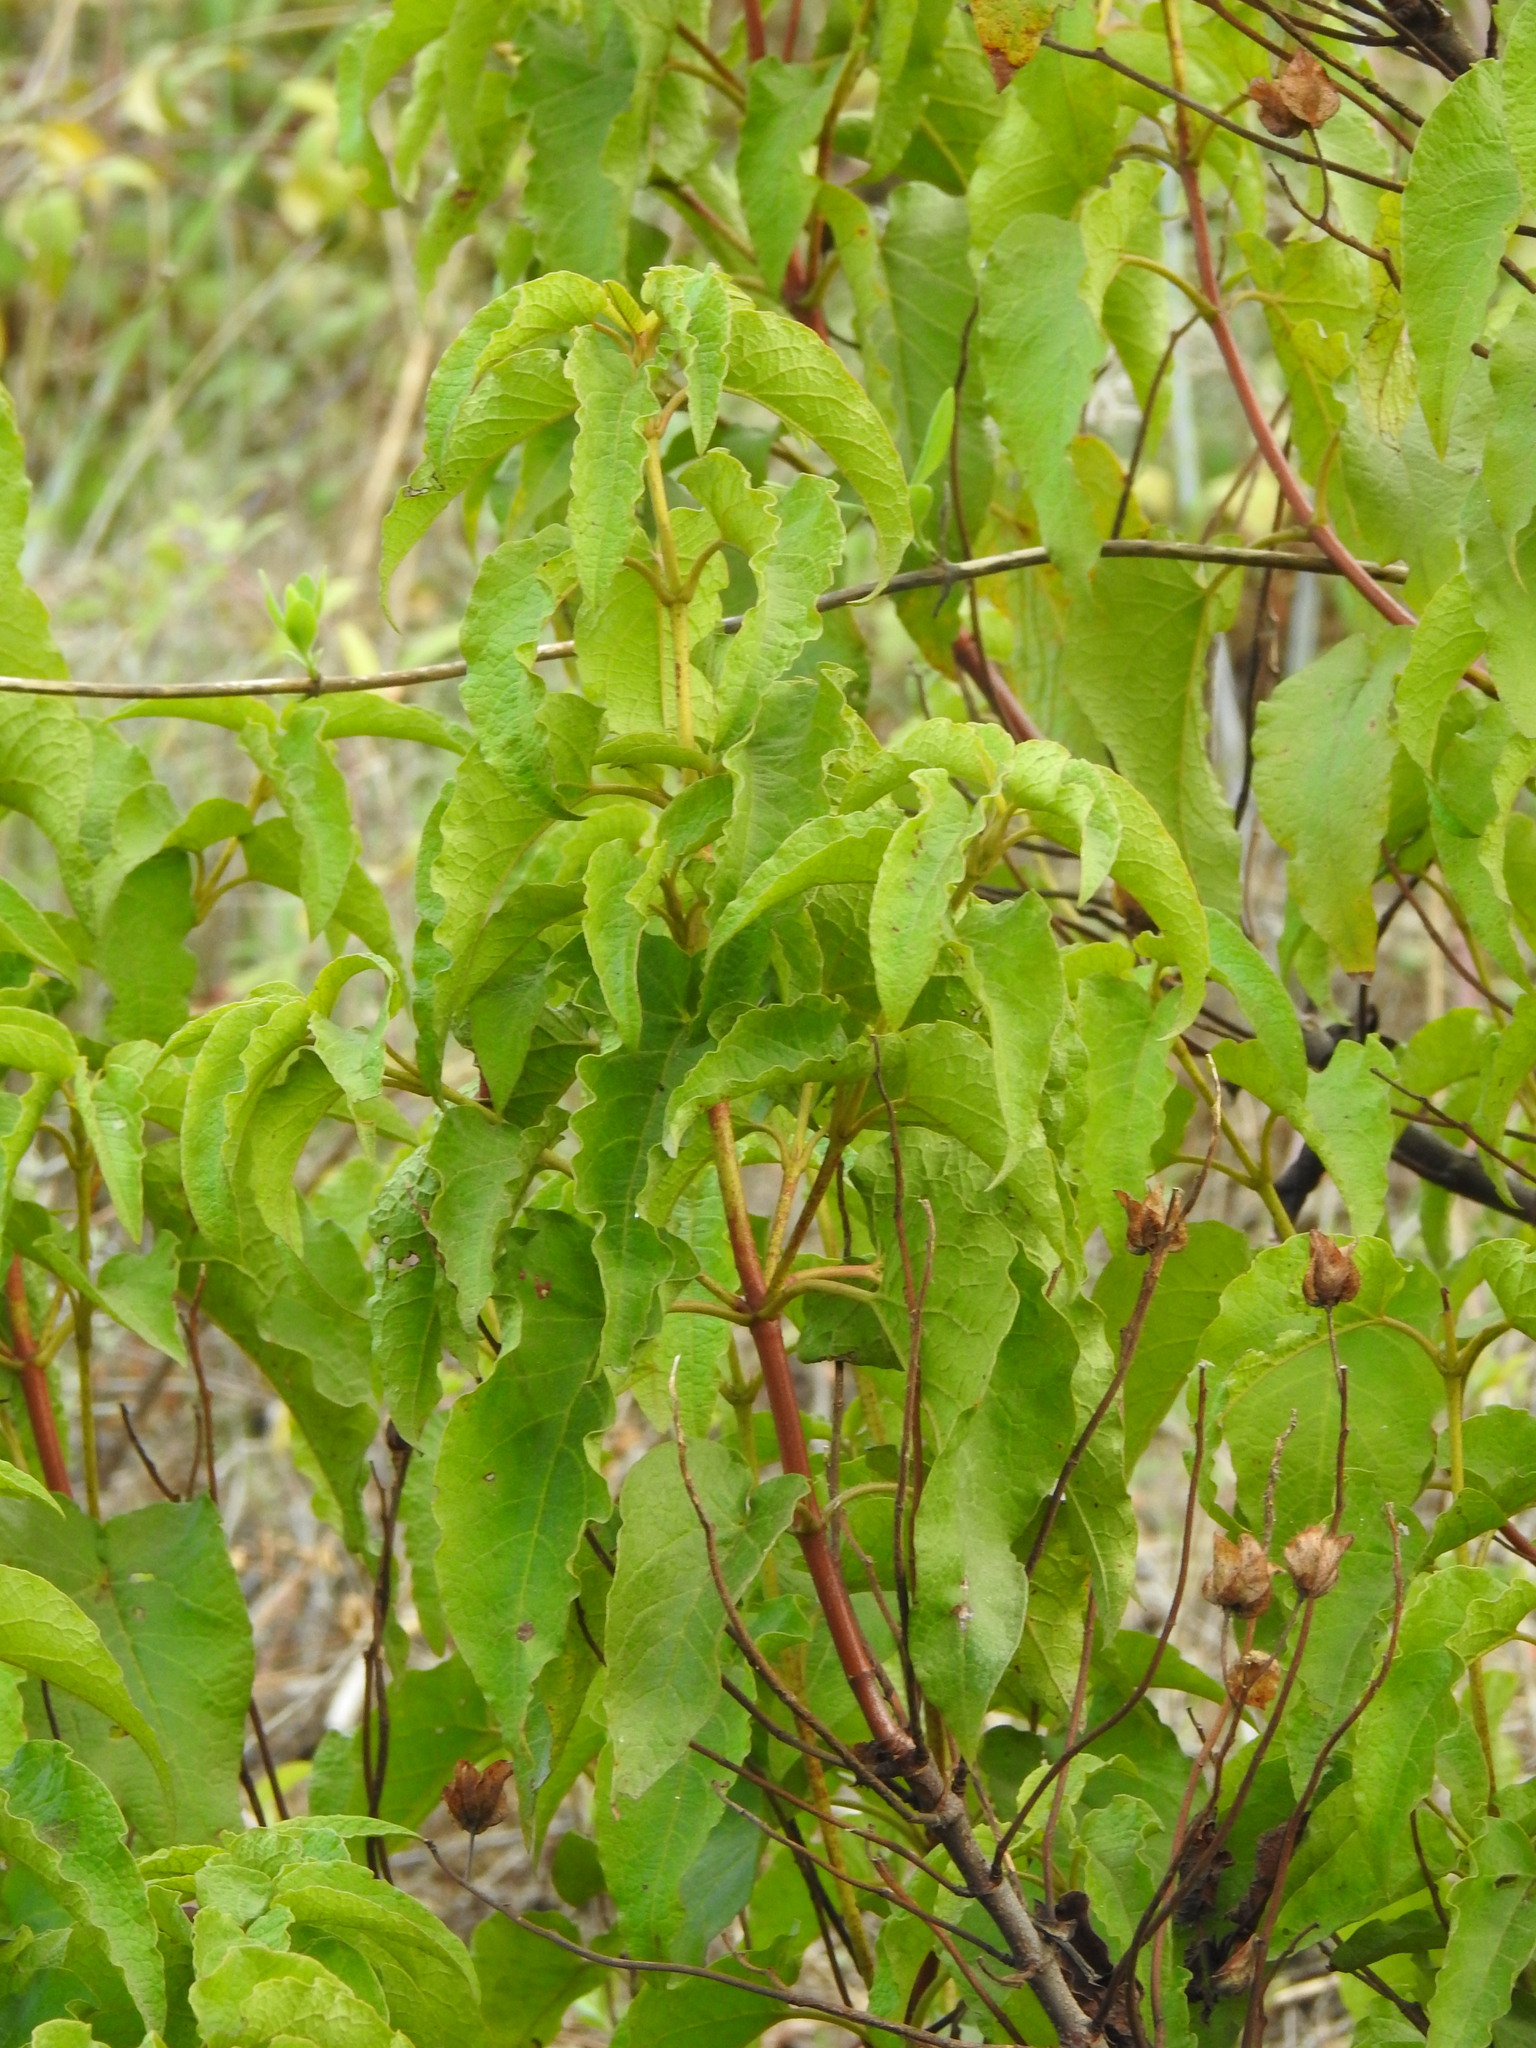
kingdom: Plantae
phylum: Tracheophyta
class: Magnoliopsida
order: Malvales
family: Cistaceae
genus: Cistus
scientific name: Cistus populifolius
